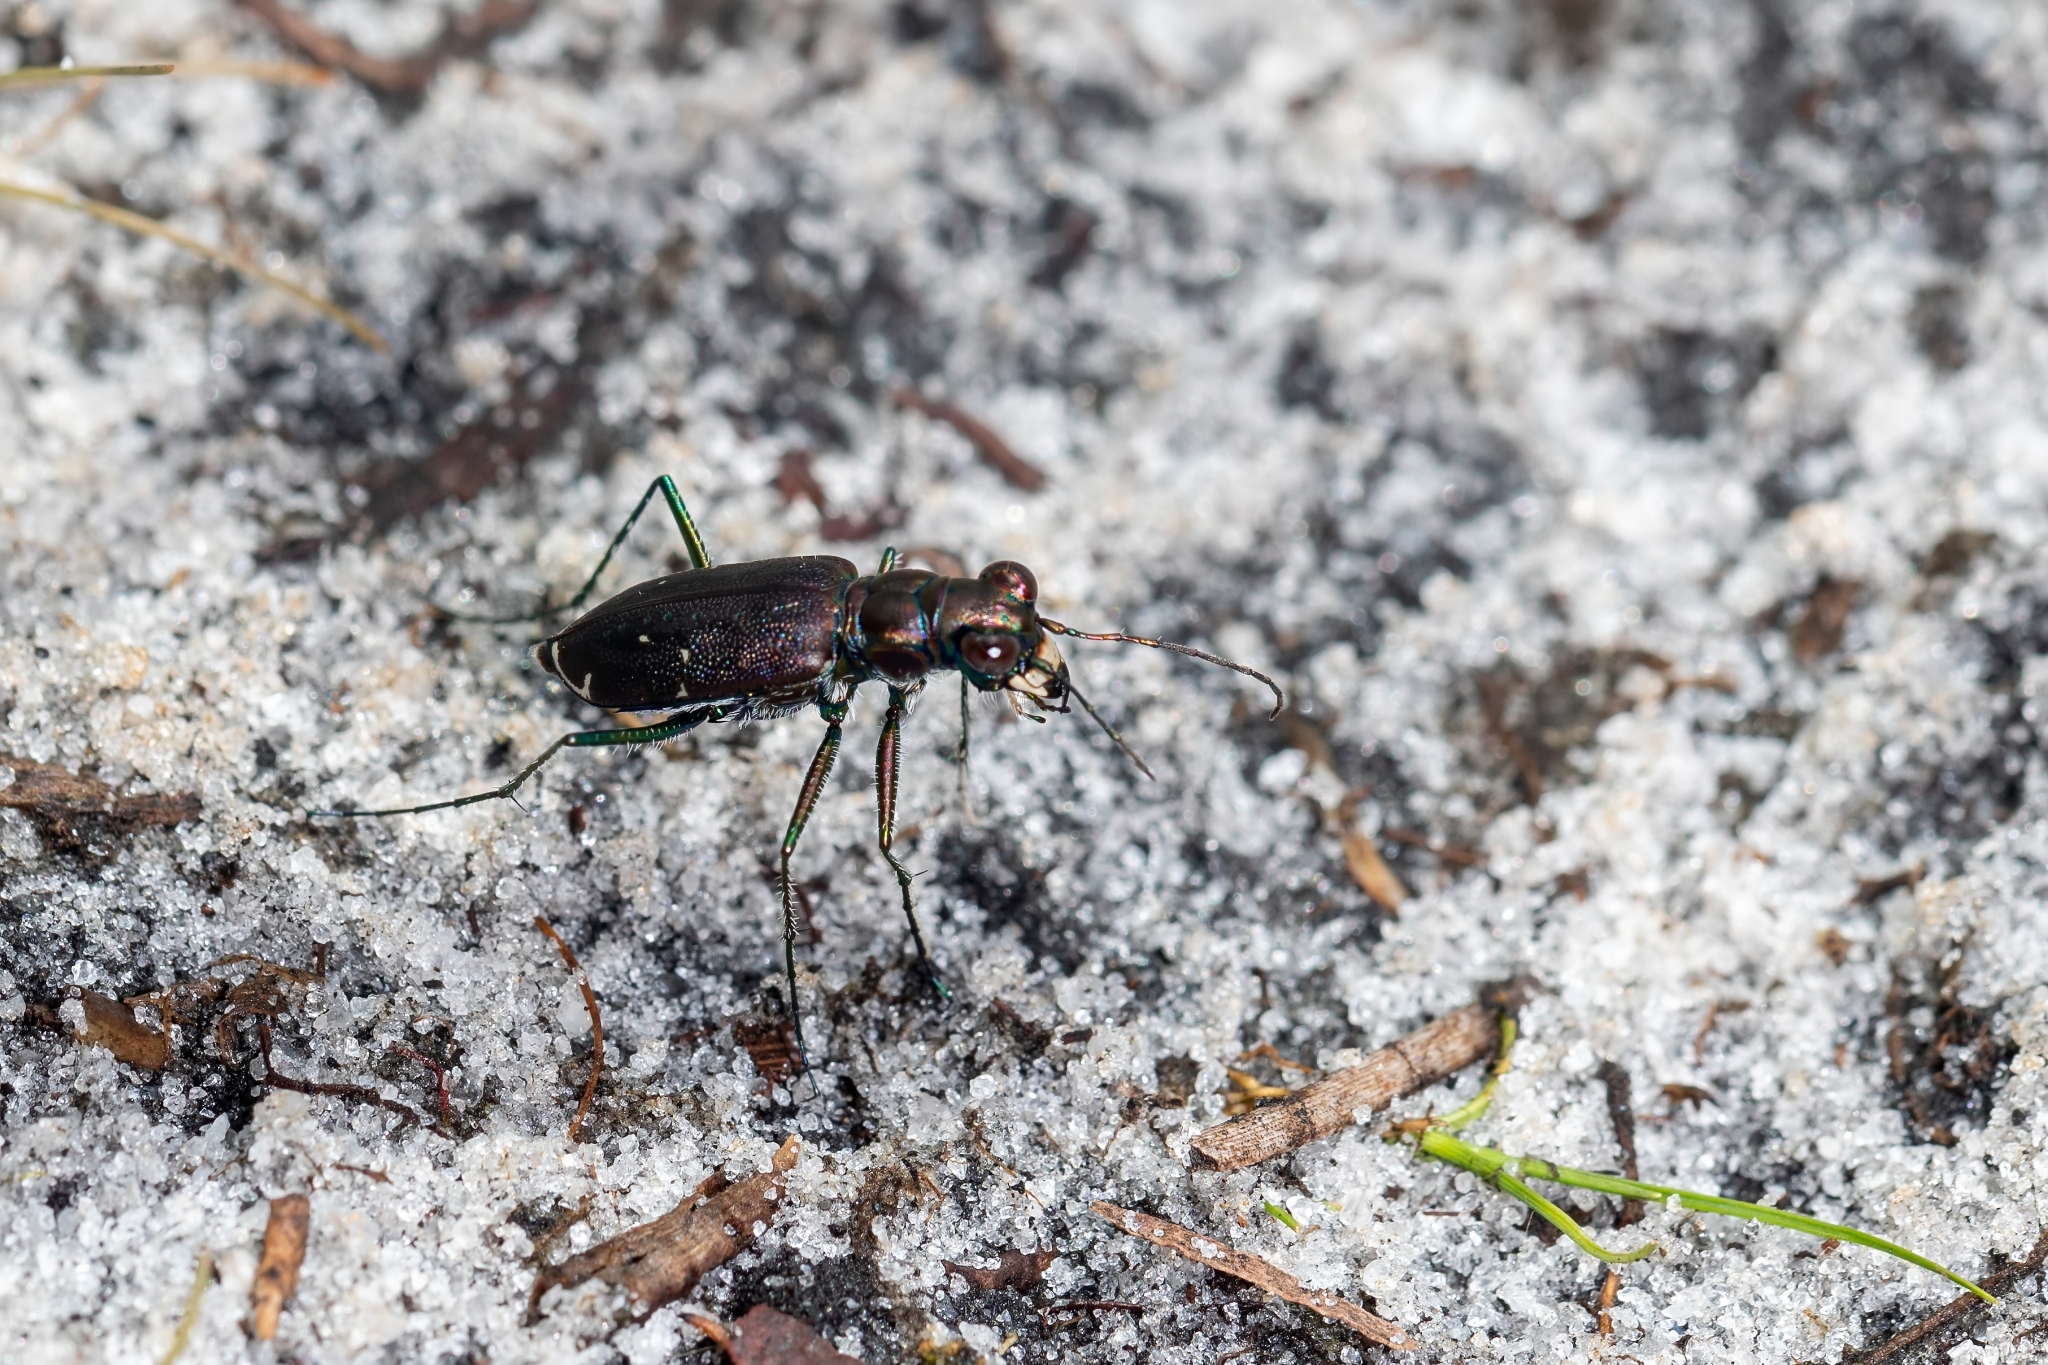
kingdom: Animalia
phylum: Arthropoda
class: Insecta
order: Coleoptera
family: Carabidae
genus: Cicindela
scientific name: Cicindela punctulata
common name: Punctured tiger beetle
